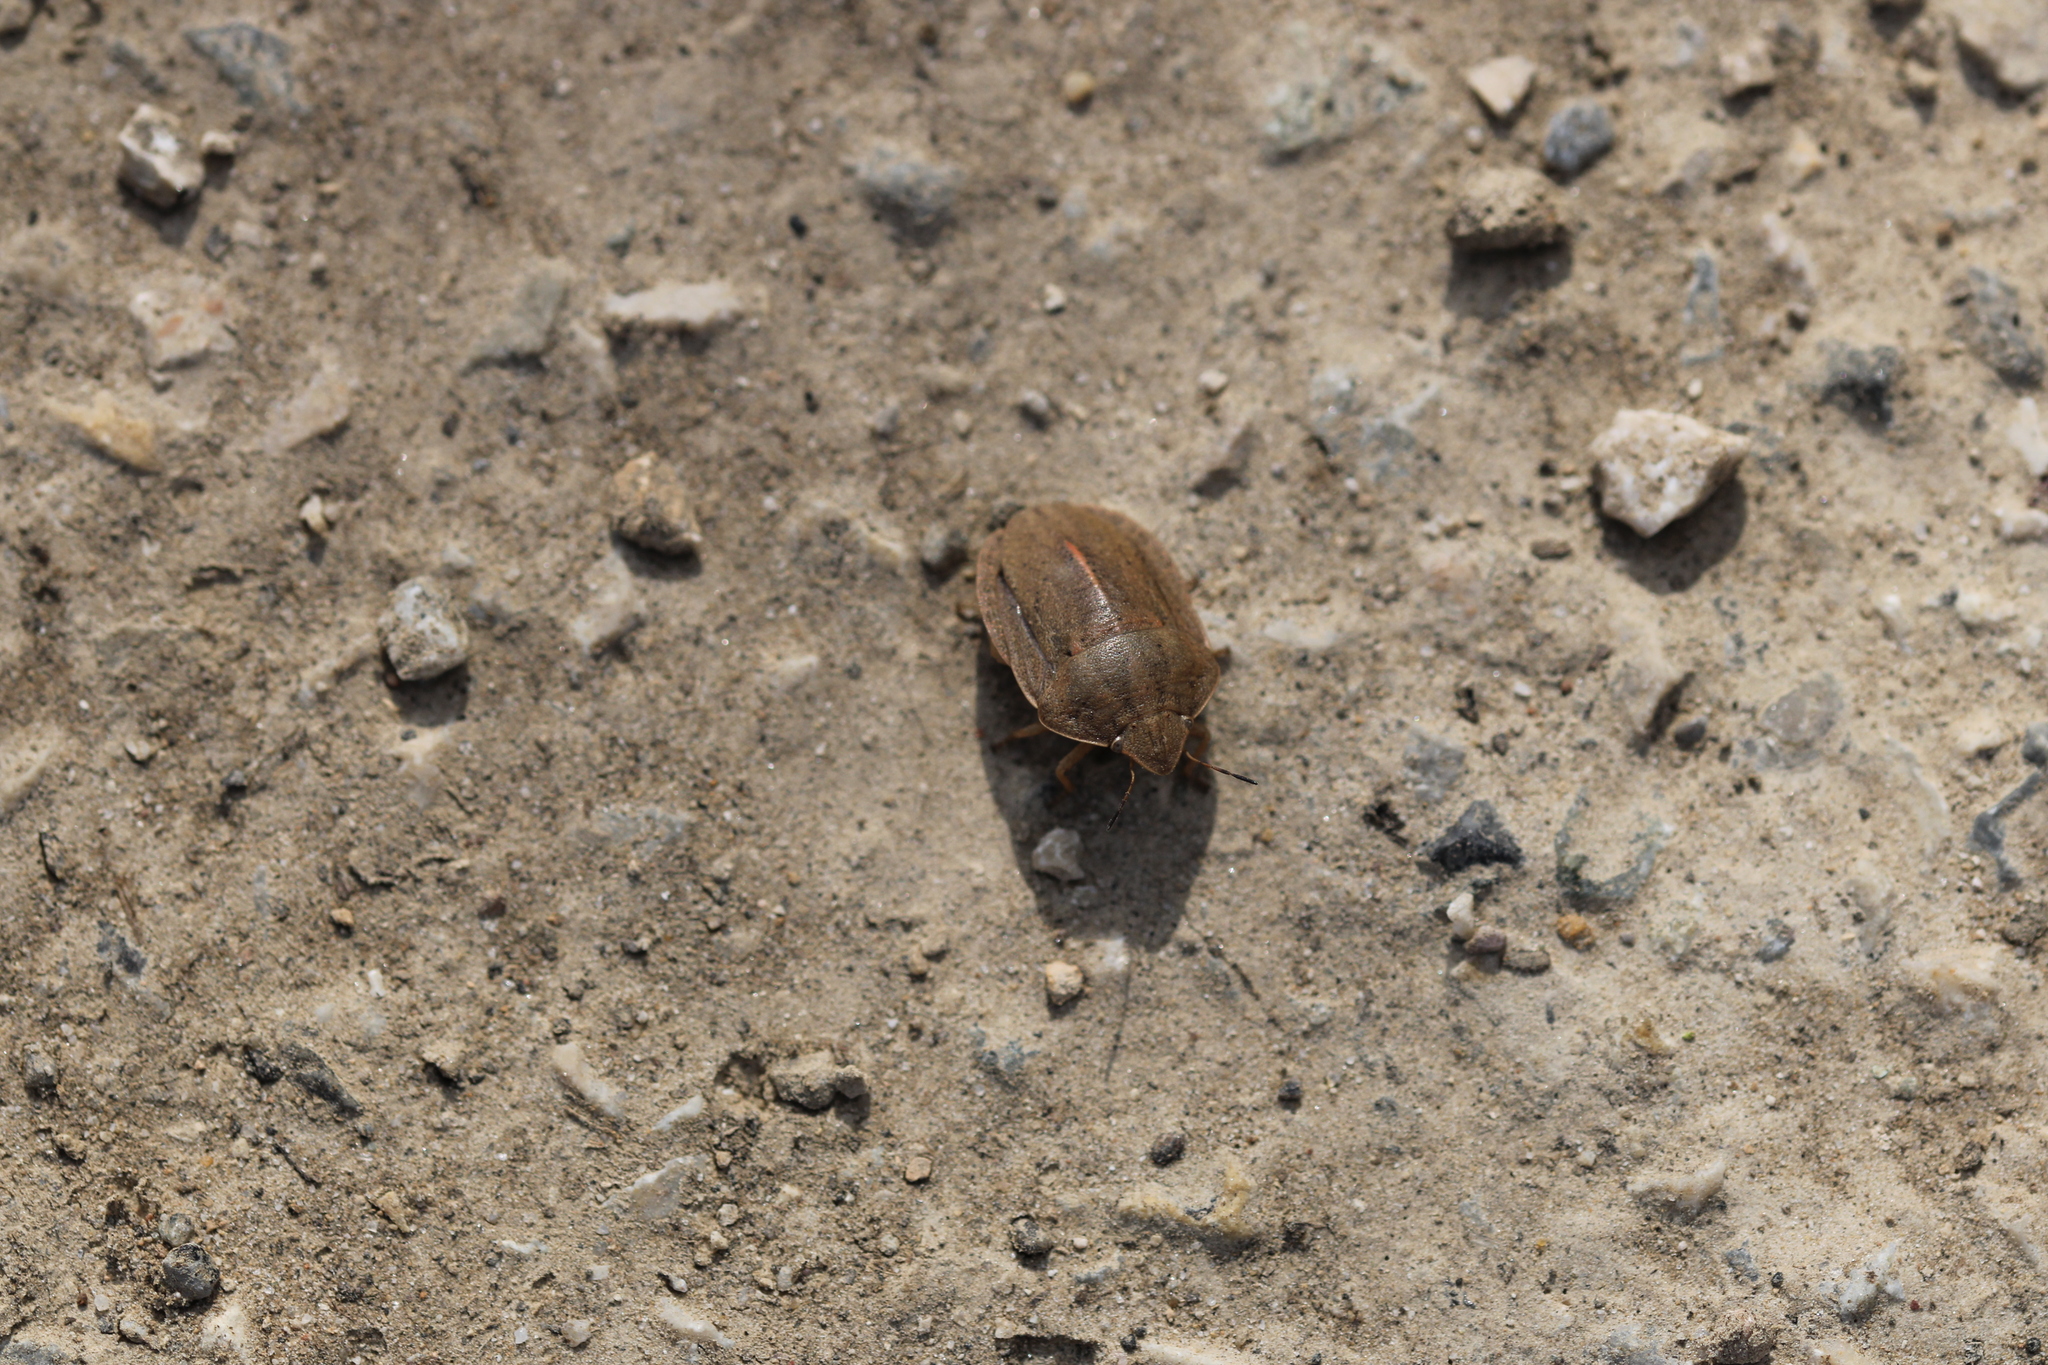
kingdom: Animalia
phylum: Arthropoda
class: Insecta
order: Hemiptera
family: Scutelleridae
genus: Eurygaster
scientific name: Eurygaster austriaca
